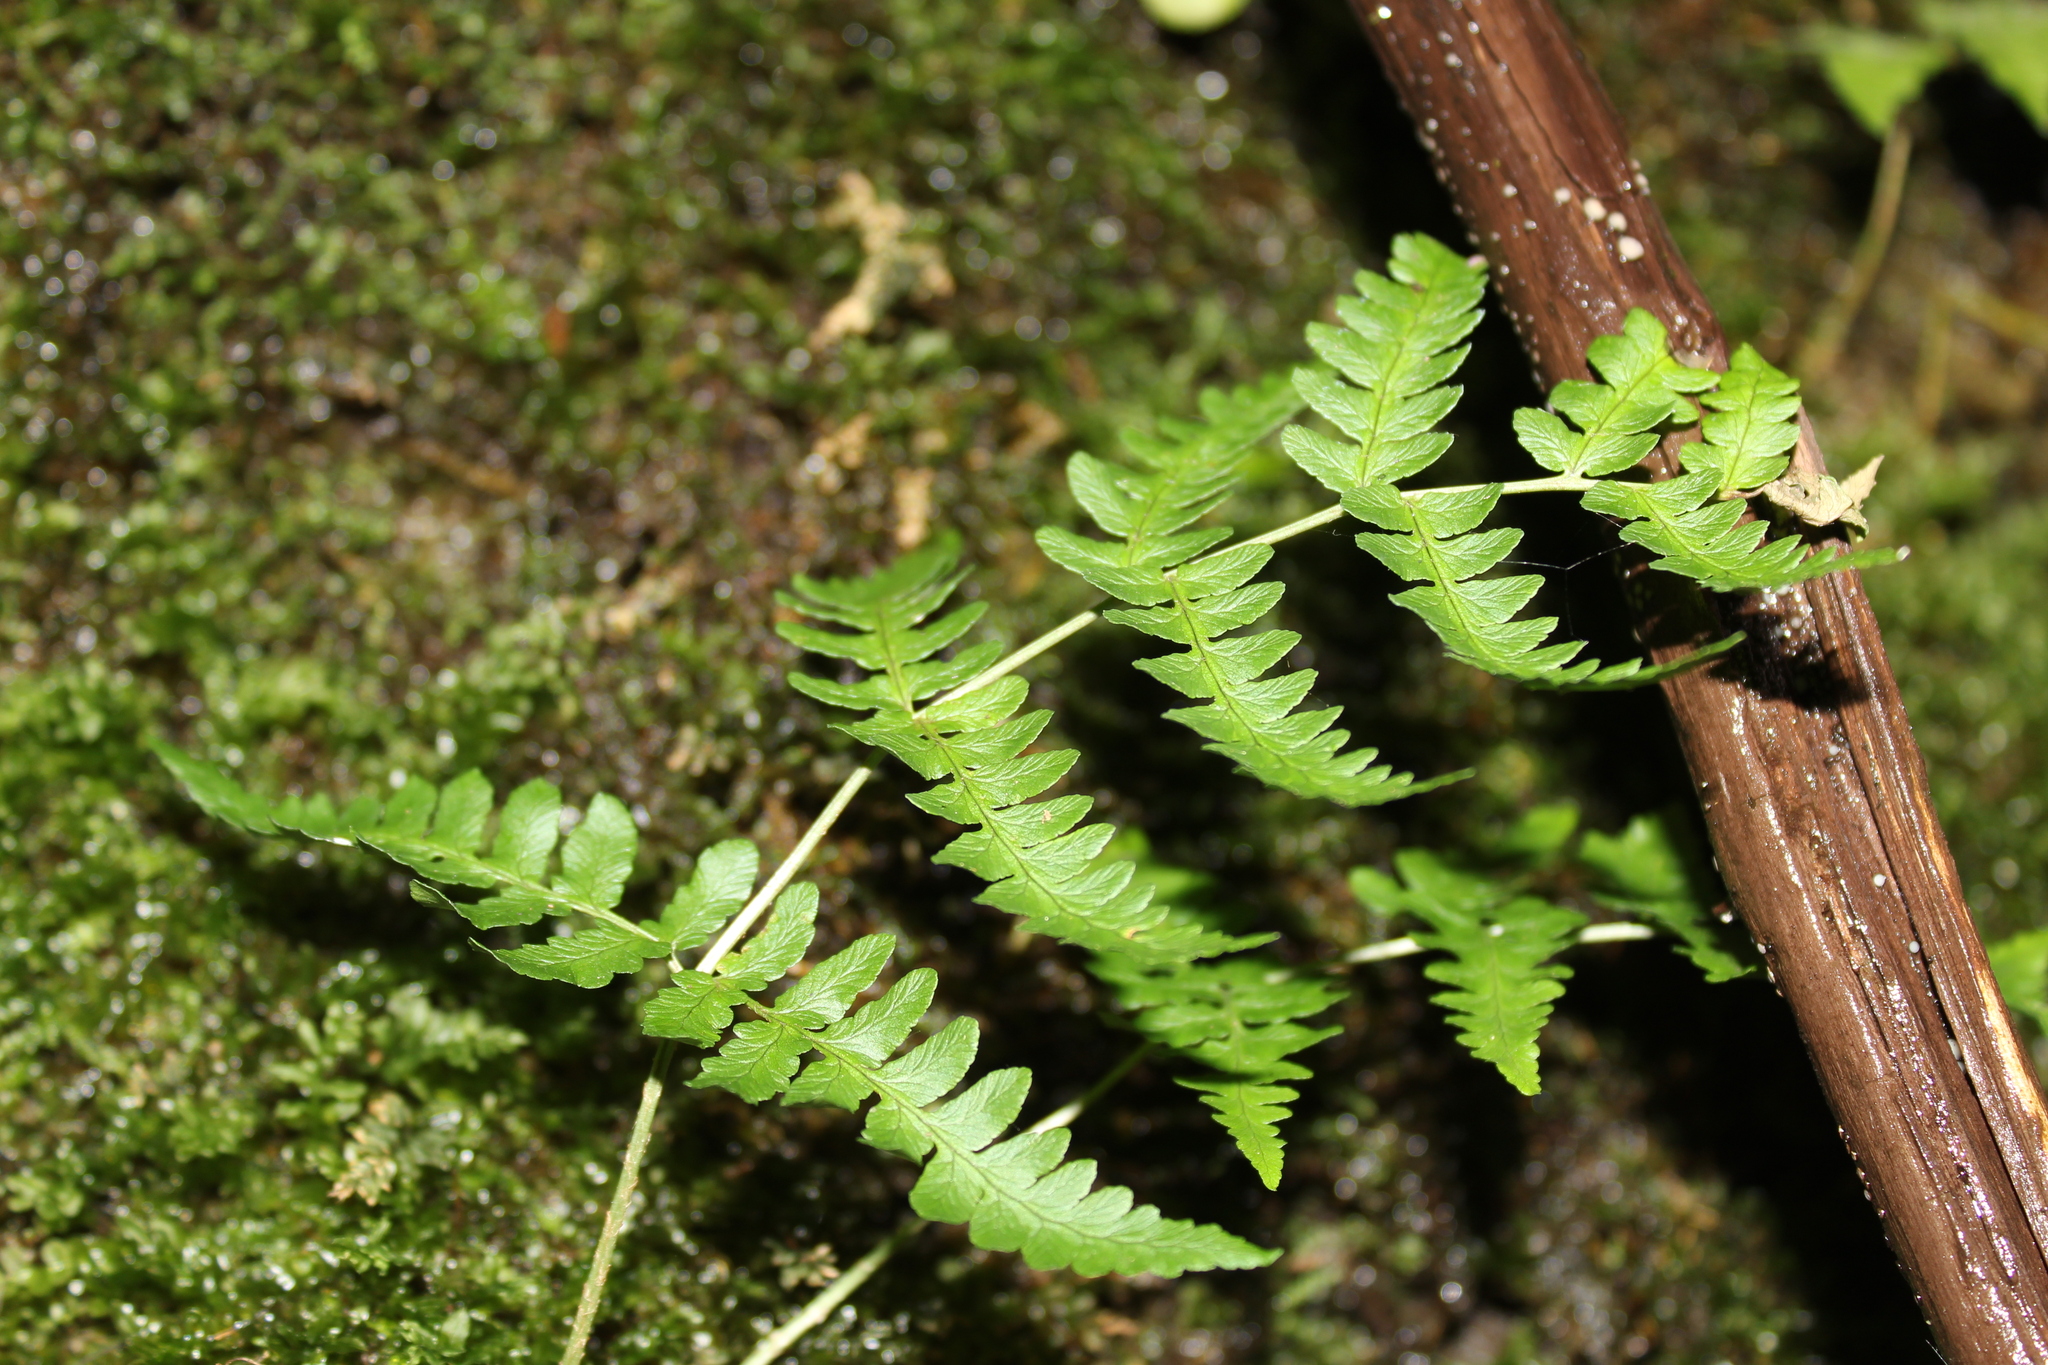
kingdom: Plantae
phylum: Tracheophyta
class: Polypodiopsida
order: Polypodiales
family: Dryopteridaceae
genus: Dryopteris
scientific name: Dryopteris marginalis
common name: Marginal wood fern
